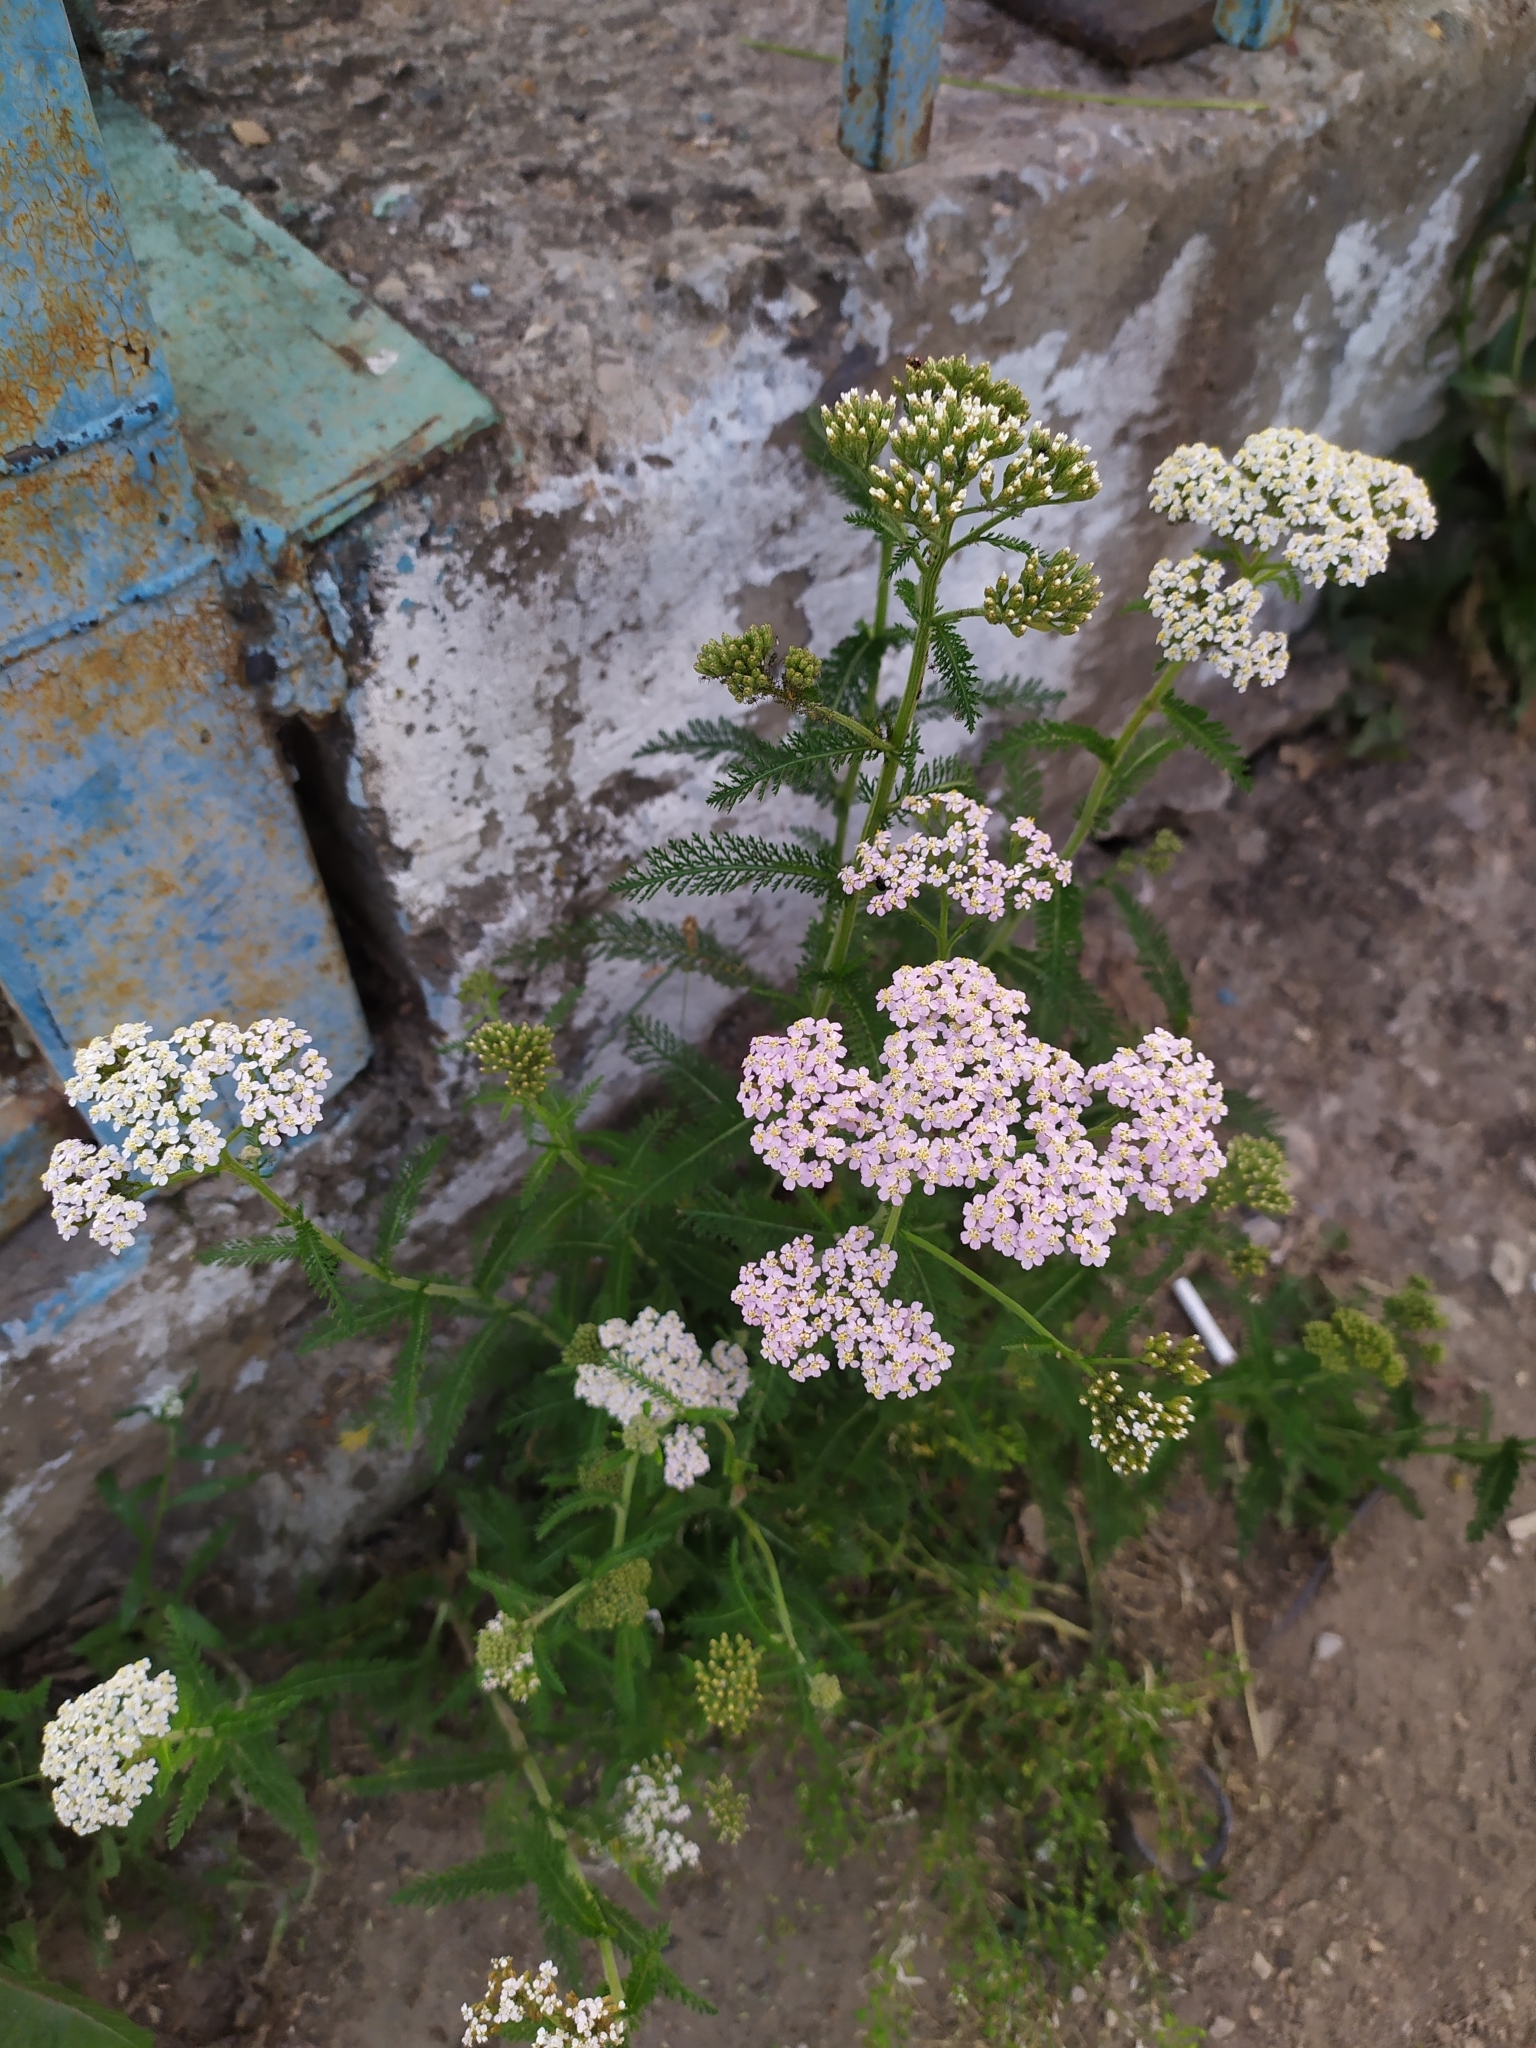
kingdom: Plantae
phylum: Tracheophyta
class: Magnoliopsida
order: Asterales
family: Asteraceae
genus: Achillea
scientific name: Achillea millefolium
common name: Yarrow
